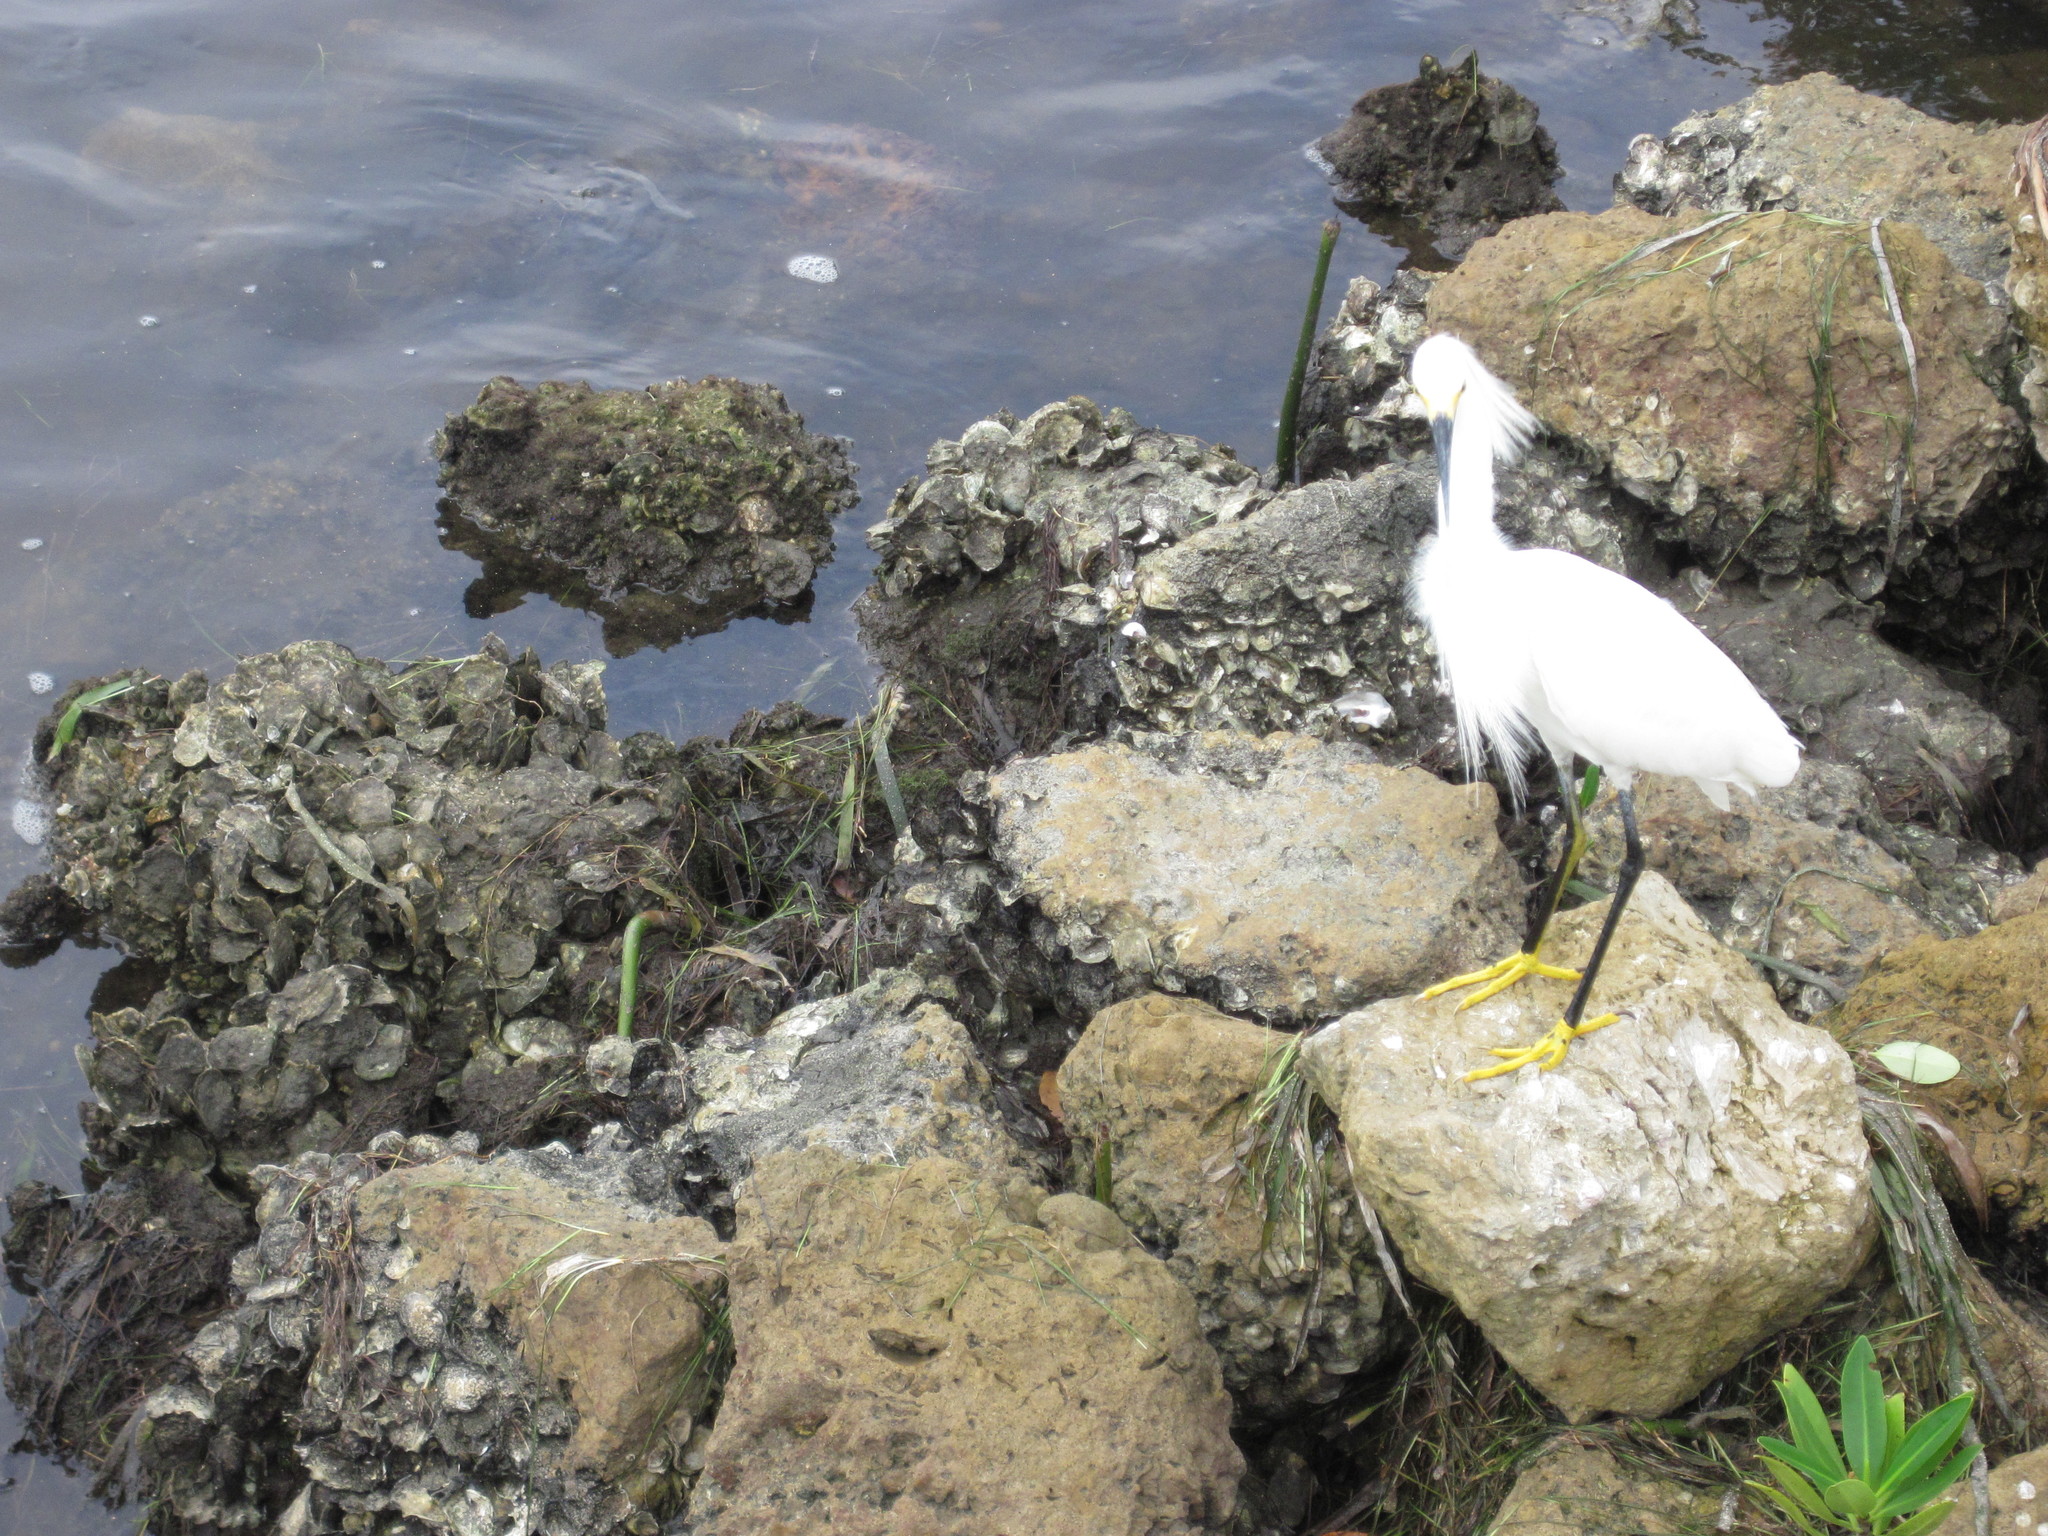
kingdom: Animalia
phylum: Chordata
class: Aves
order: Pelecaniformes
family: Ardeidae
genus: Egretta
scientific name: Egretta thula
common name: Snowy egret
